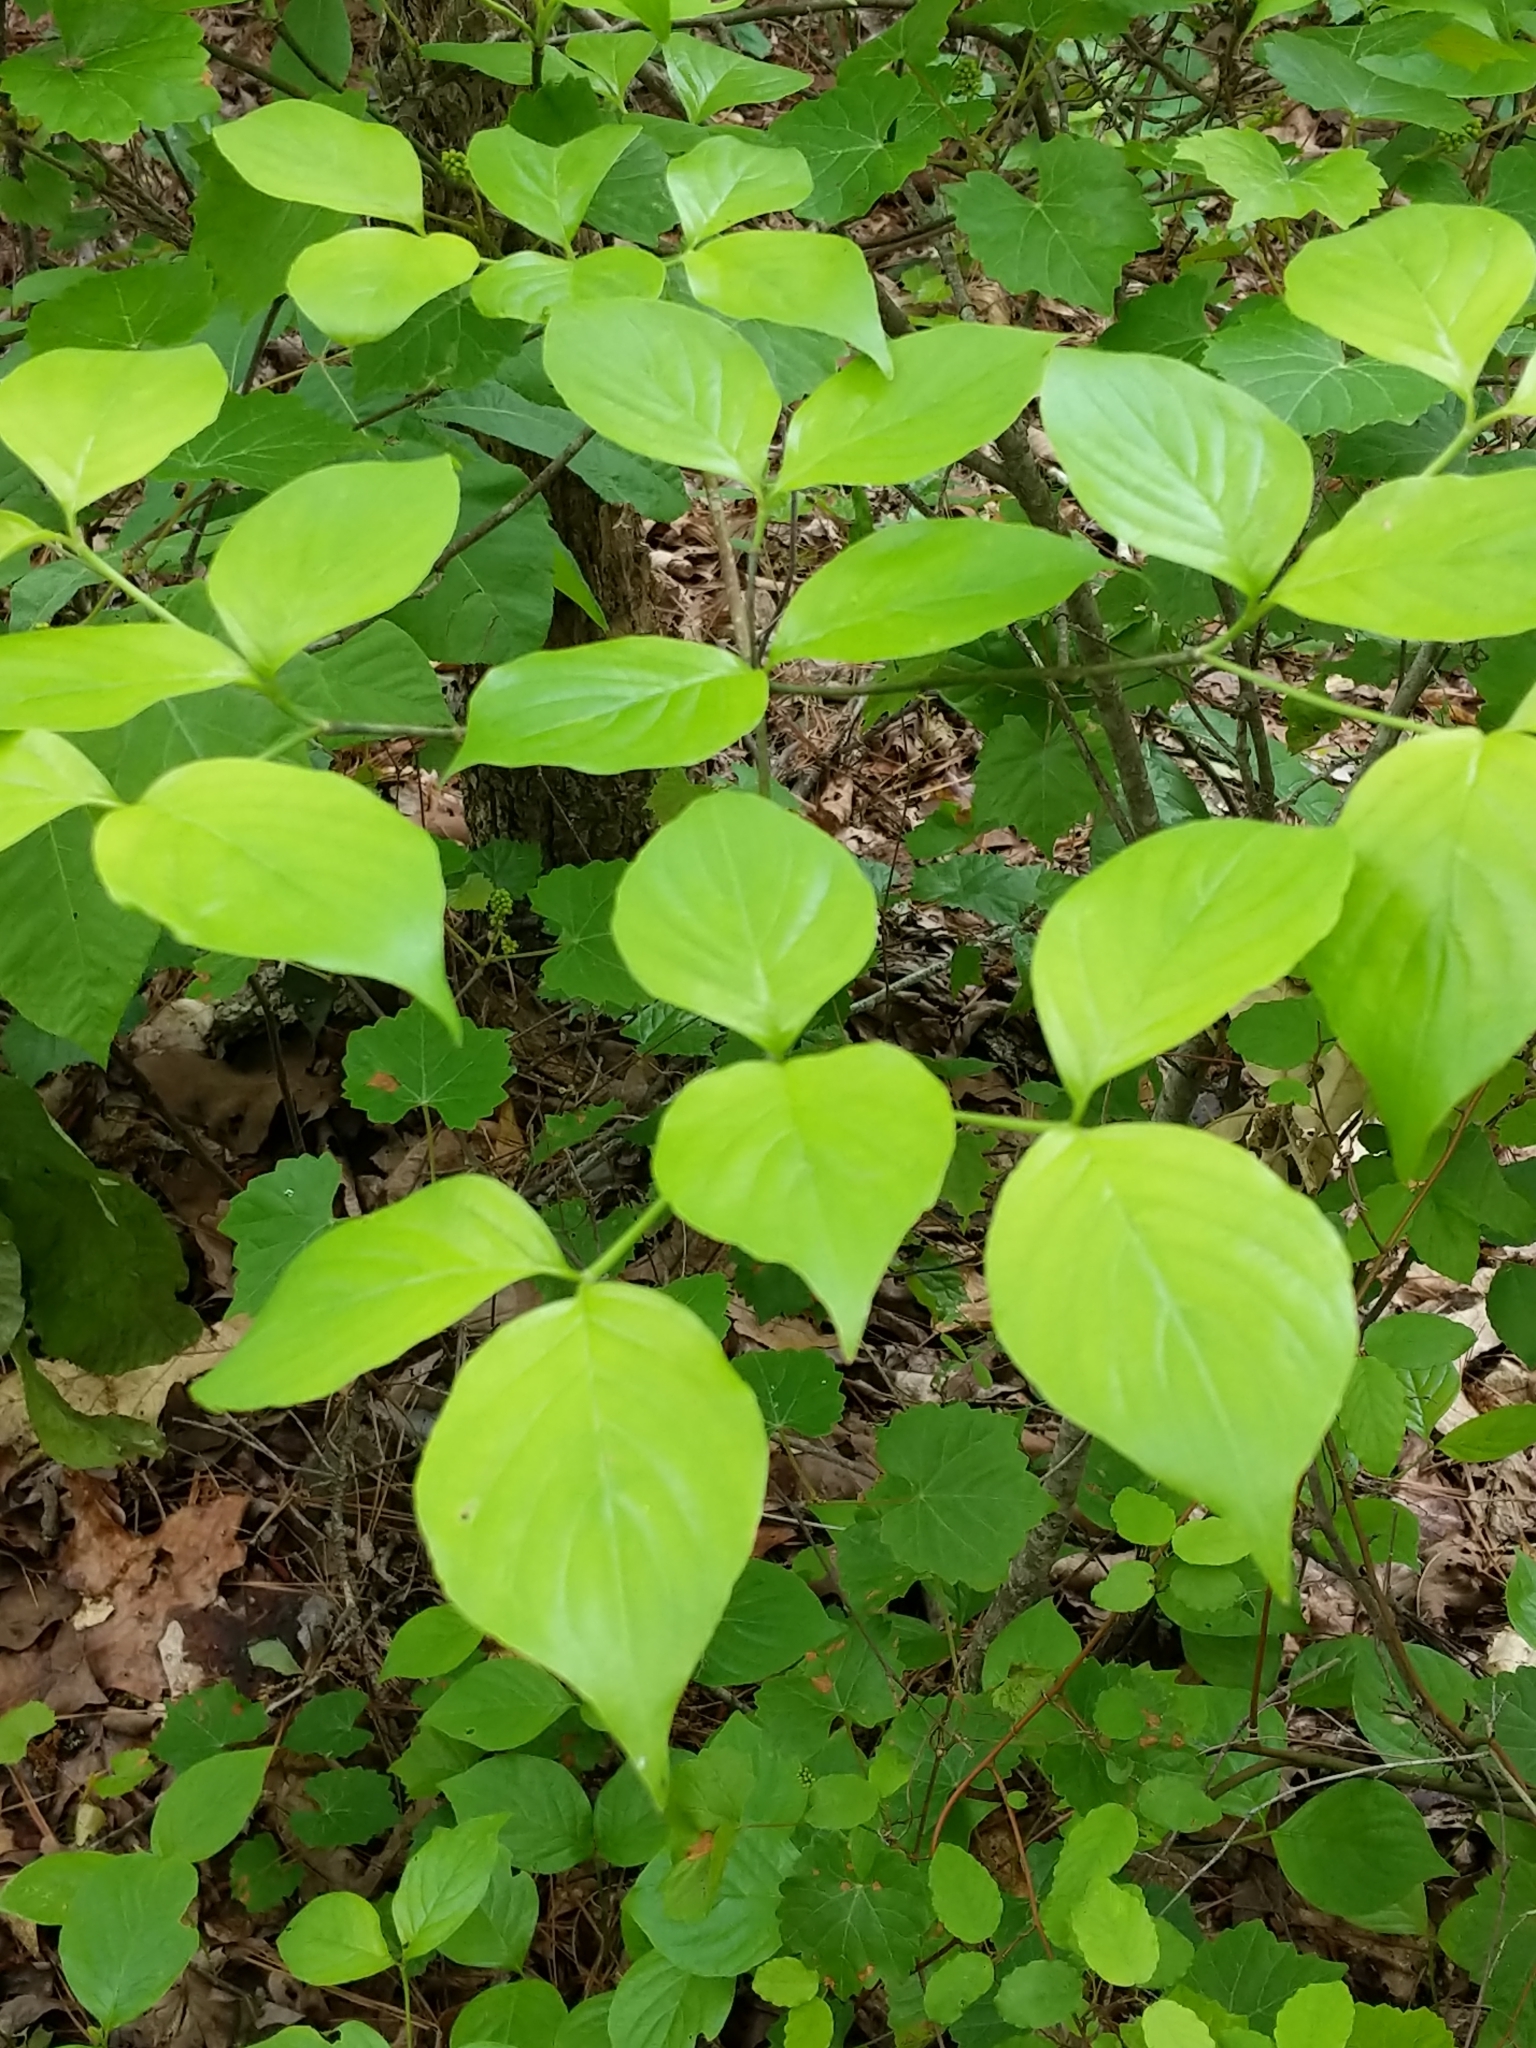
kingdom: Plantae
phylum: Tracheophyta
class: Magnoliopsida
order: Cornales
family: Cornaceae
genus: Cornus
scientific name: Cornus florida
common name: Flowering dogwood
